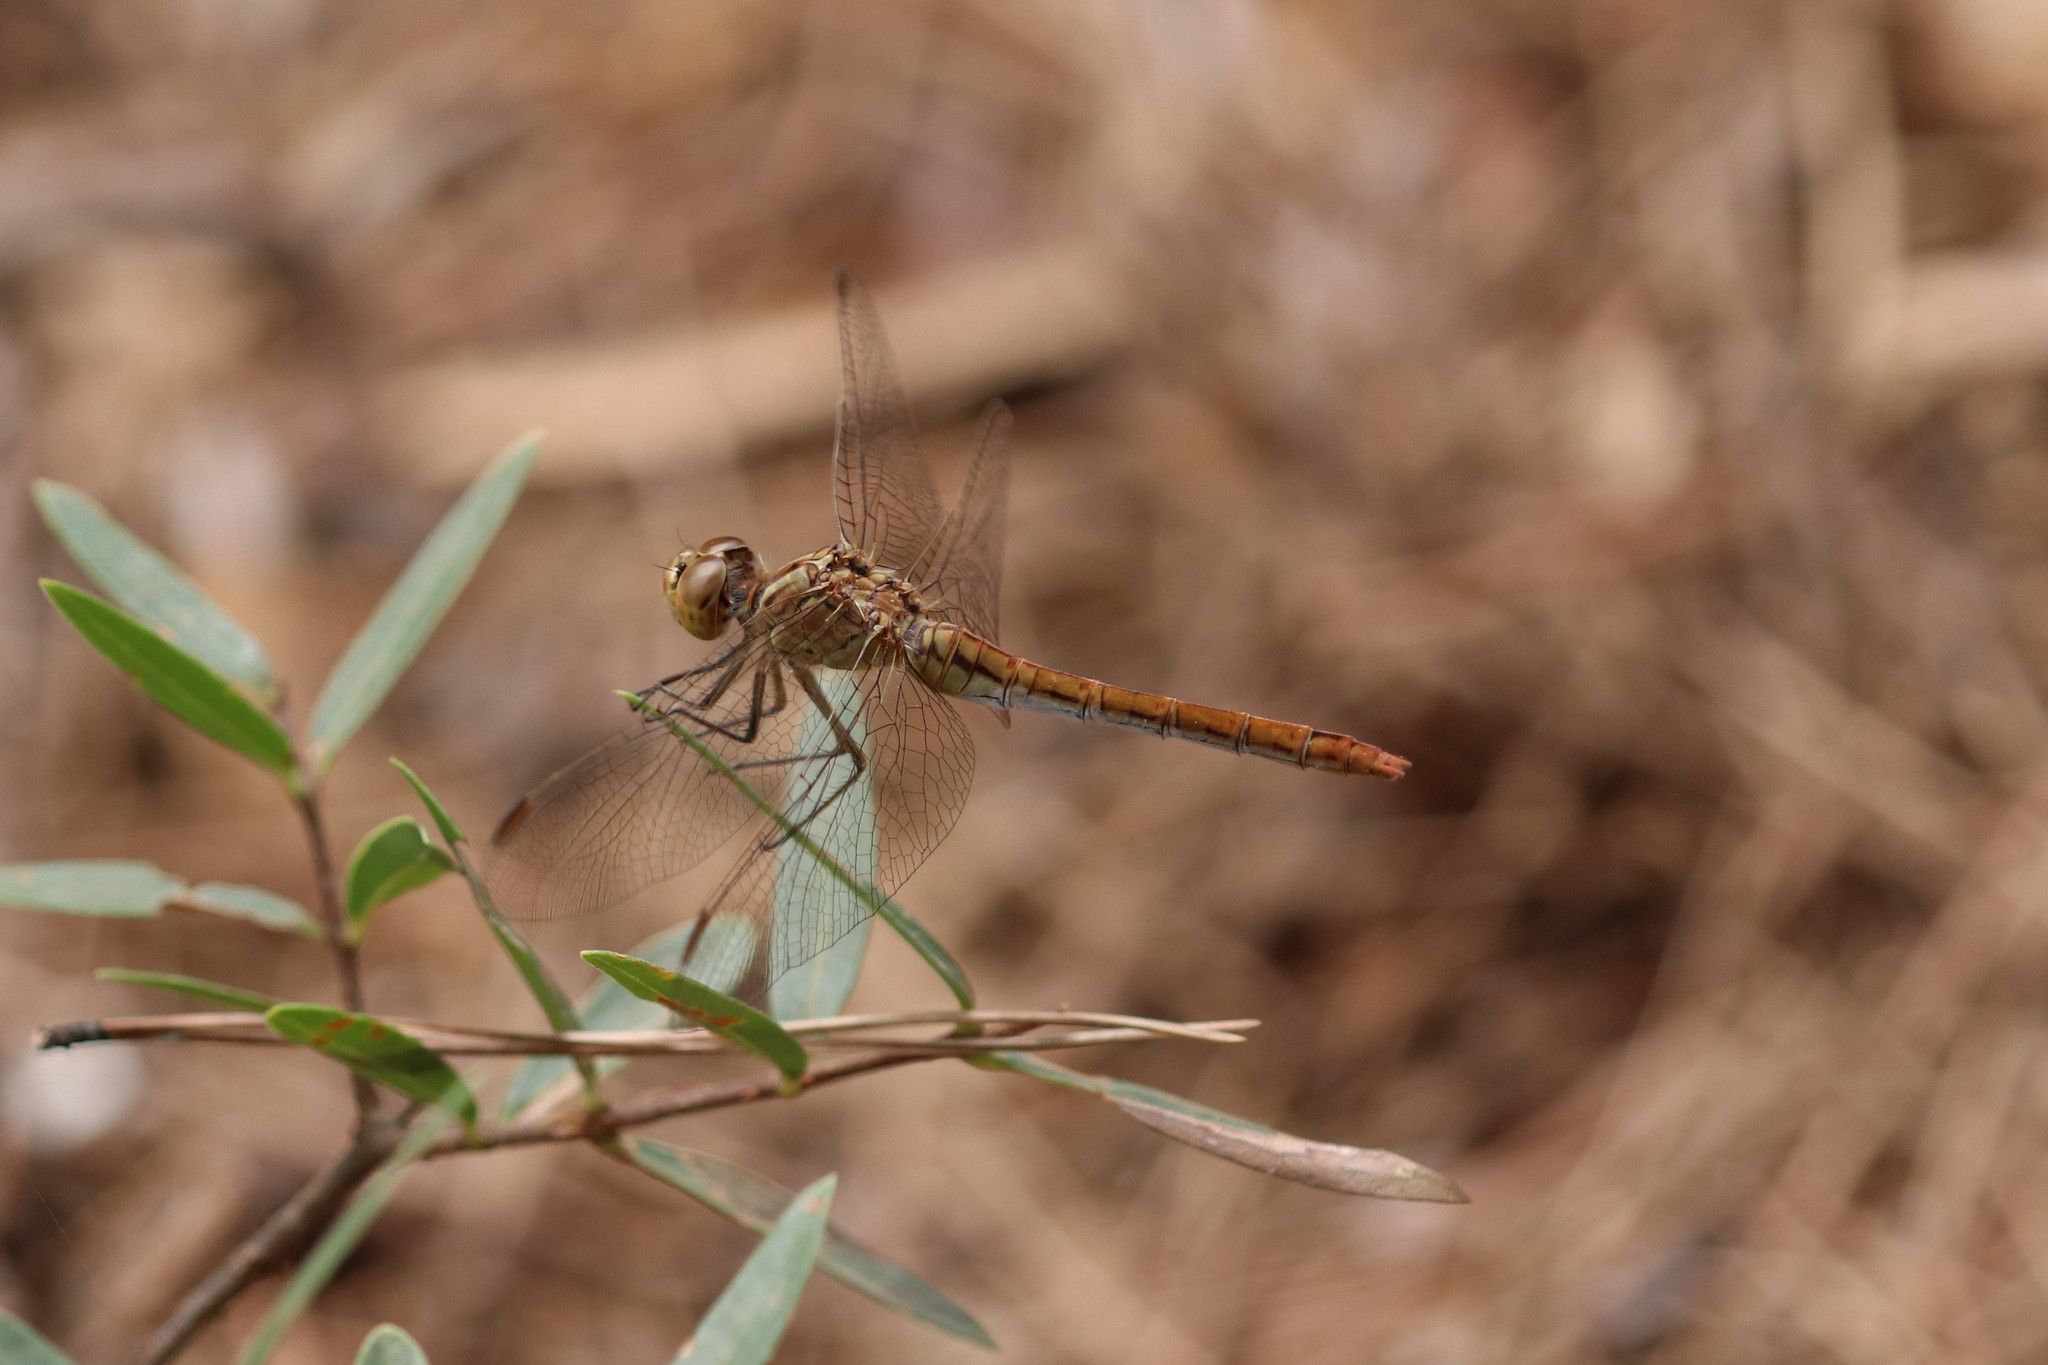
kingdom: Animalia
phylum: Arthropoda
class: Insecta
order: Odonata
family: Libellulidae
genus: Sympetrum
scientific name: Sympetrum meridionale
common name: Southern darter
